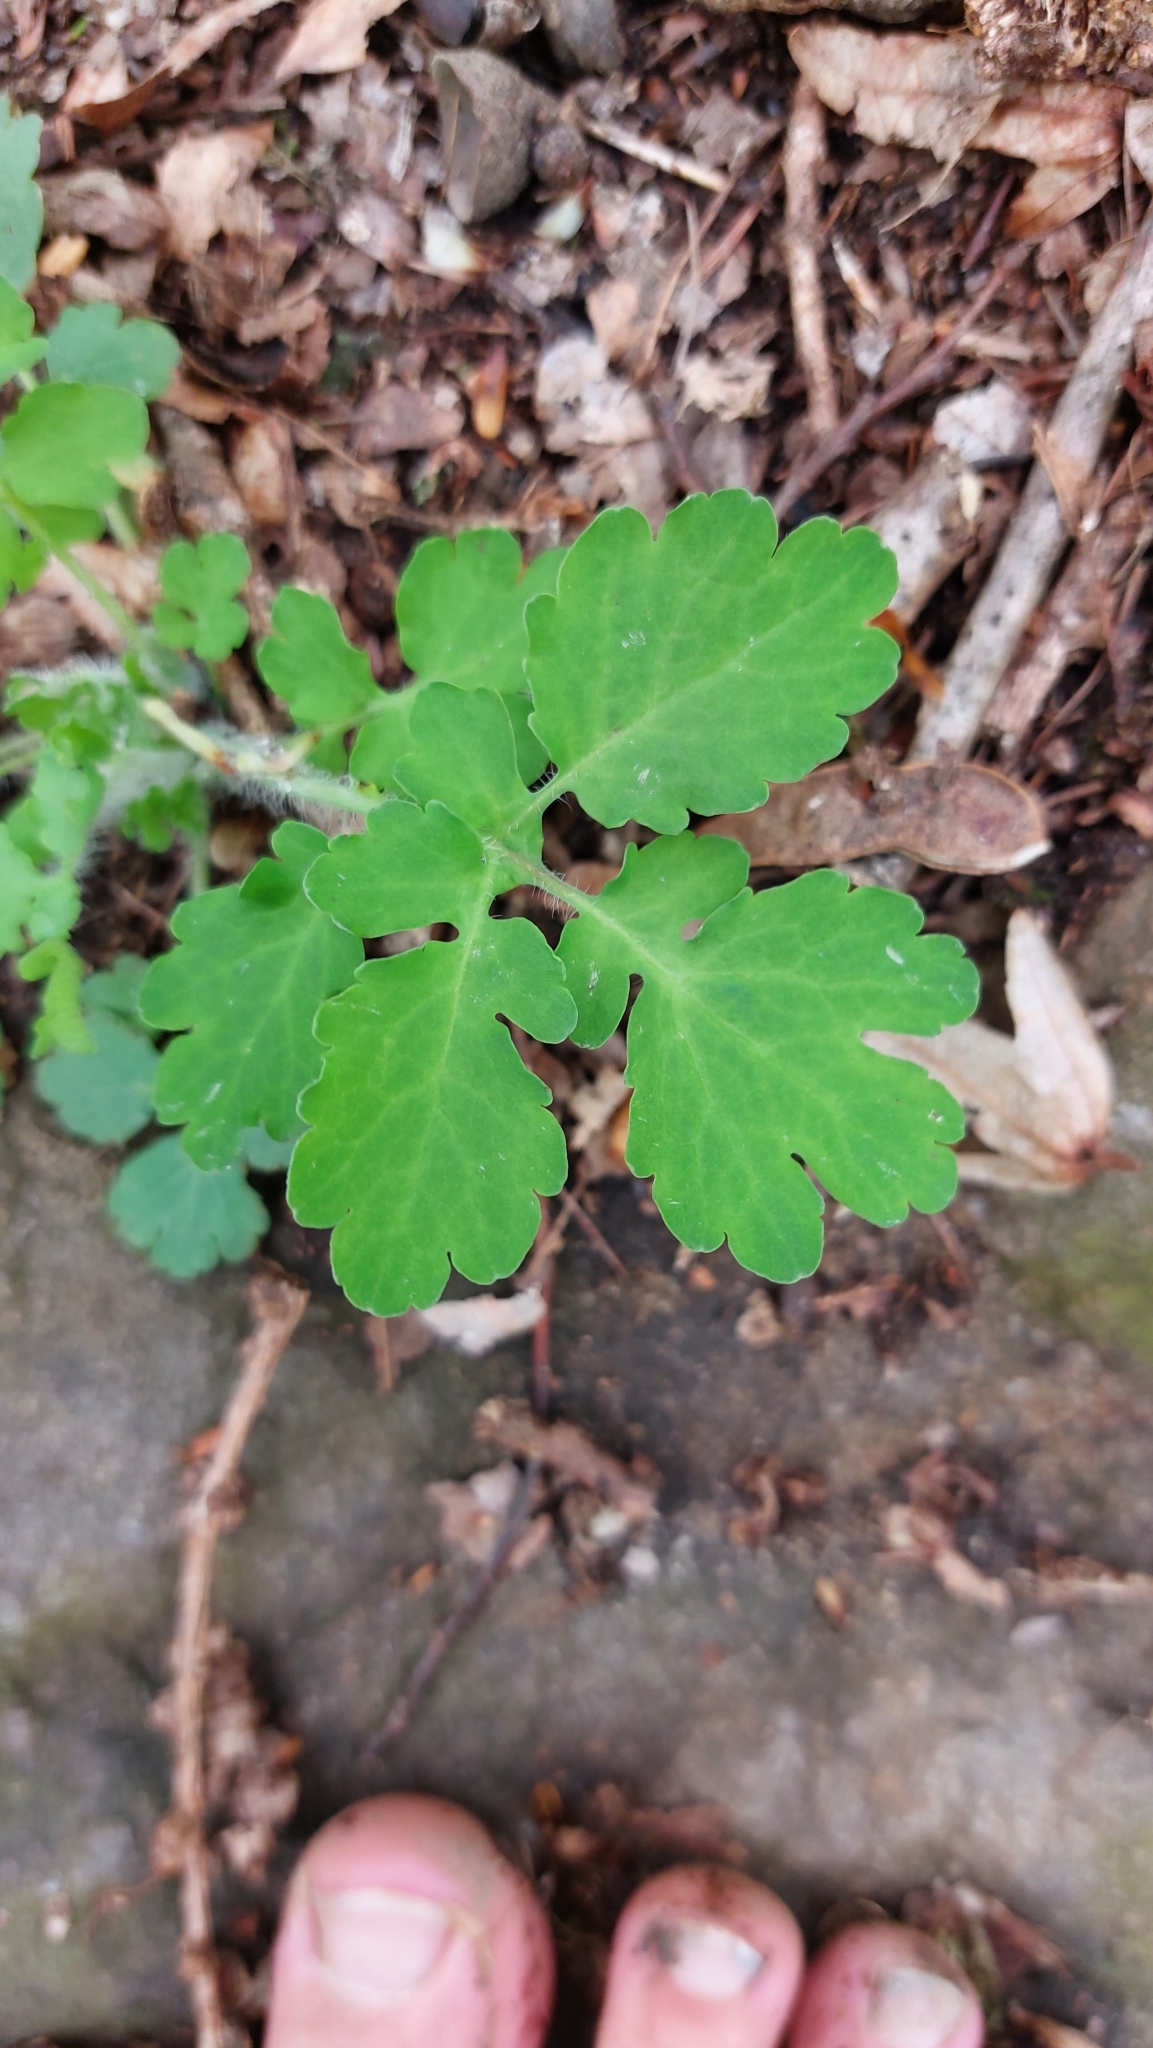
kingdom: Plantae
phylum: Tracheophyta
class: Magnoliopsida
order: Ranunculales
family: Papaveraceae
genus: Chelidonium
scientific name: Chelidonium majus
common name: Greater celandine
